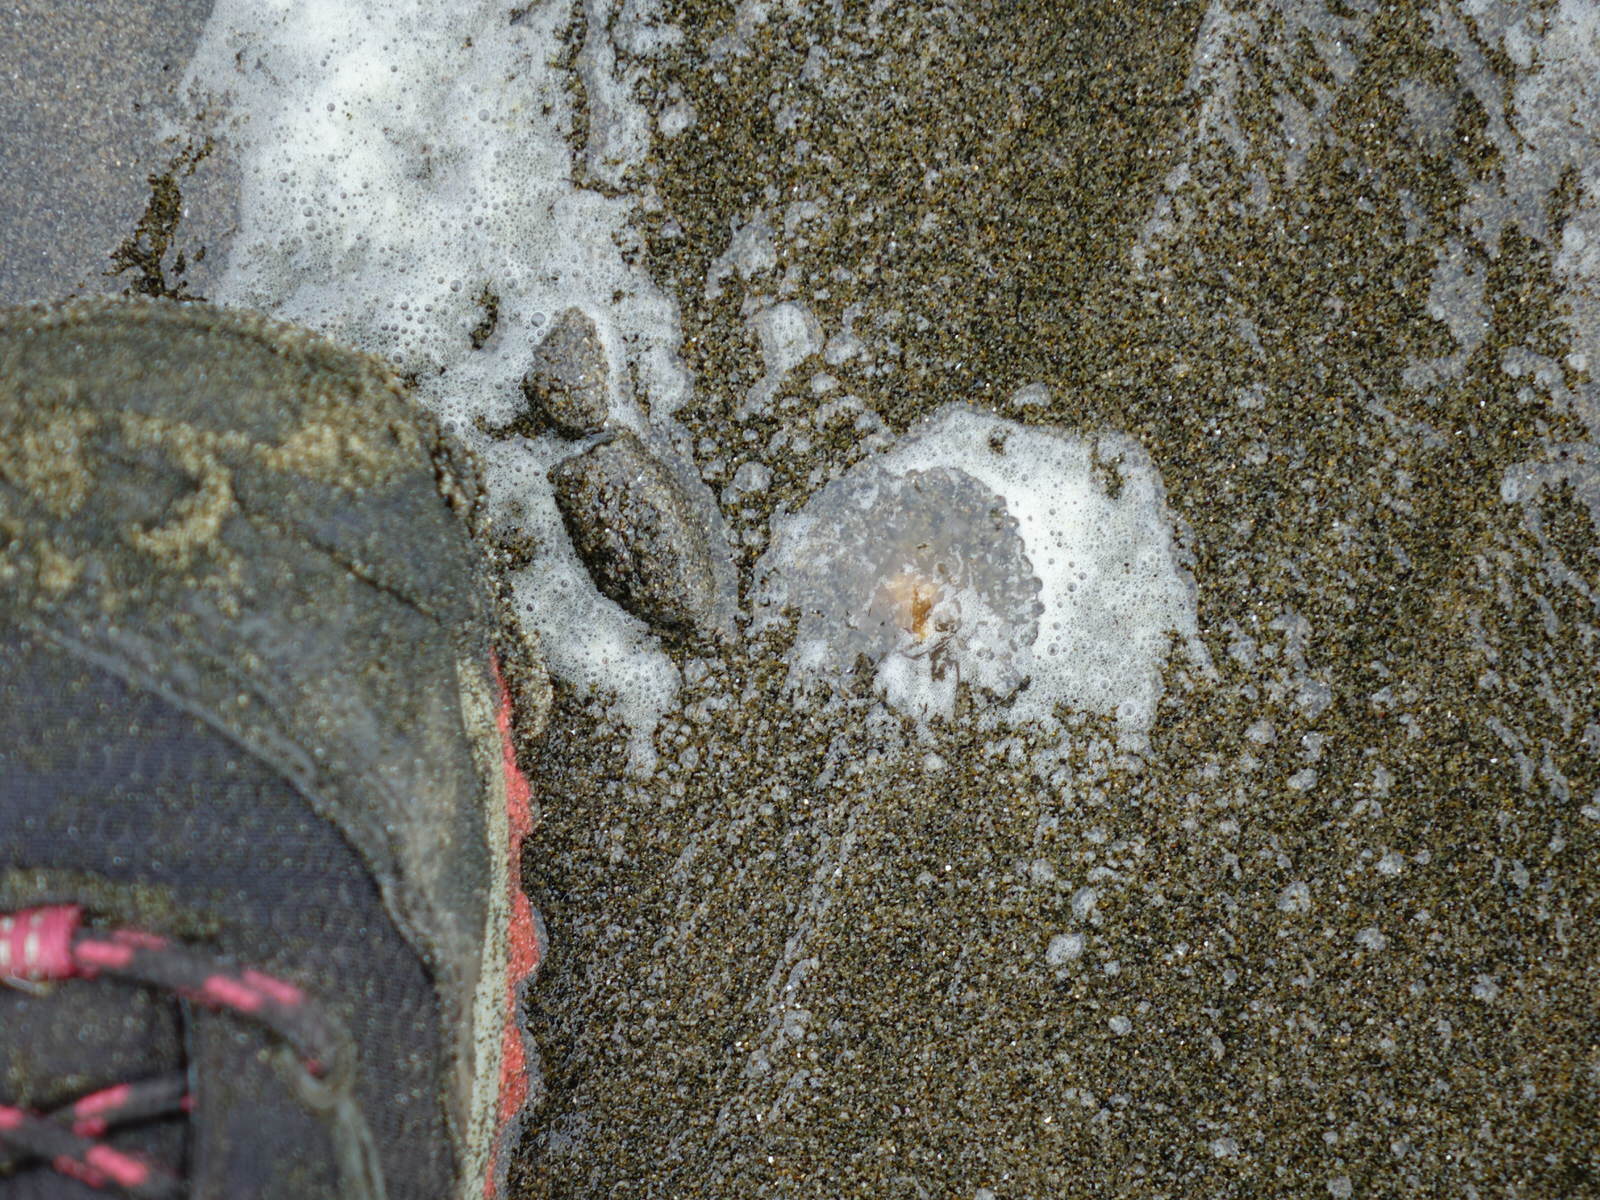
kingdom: Animalia
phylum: Cnidaria
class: Scyphozoa
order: Semaeostomeae
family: Cyaneidae
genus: Cyanea
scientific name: Cyanea
